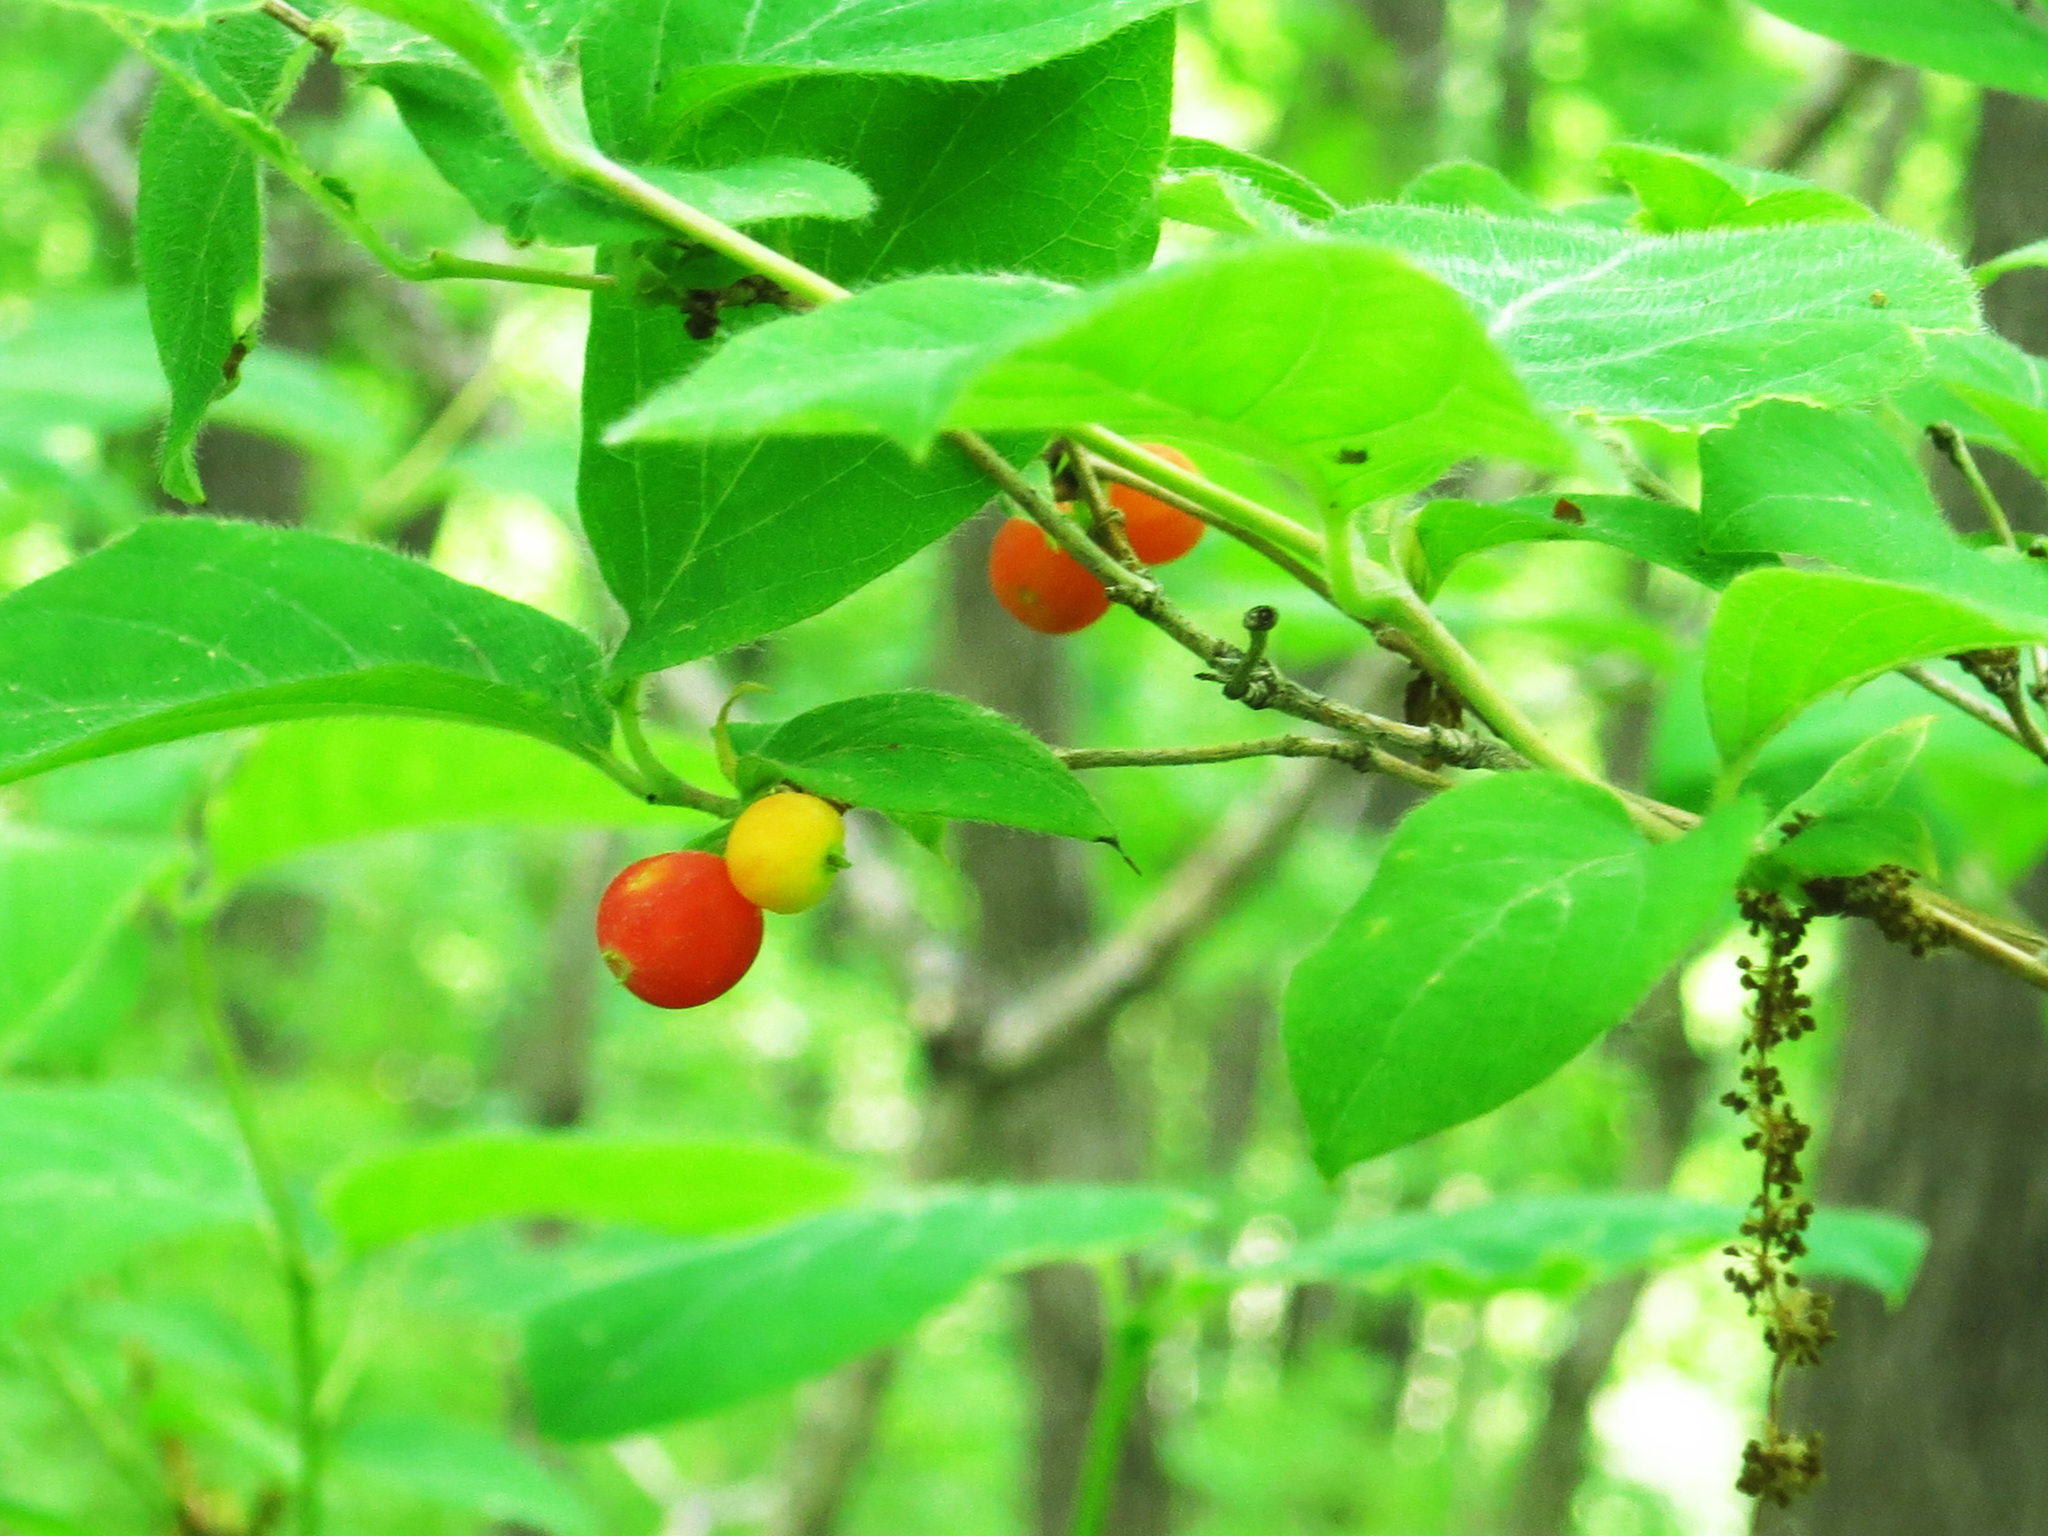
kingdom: Plantae
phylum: Tracheophyta
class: Magnoliopsida
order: Dipsacales
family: Caprifoliaceae
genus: Lonicera
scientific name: Lonicera praeflorens
